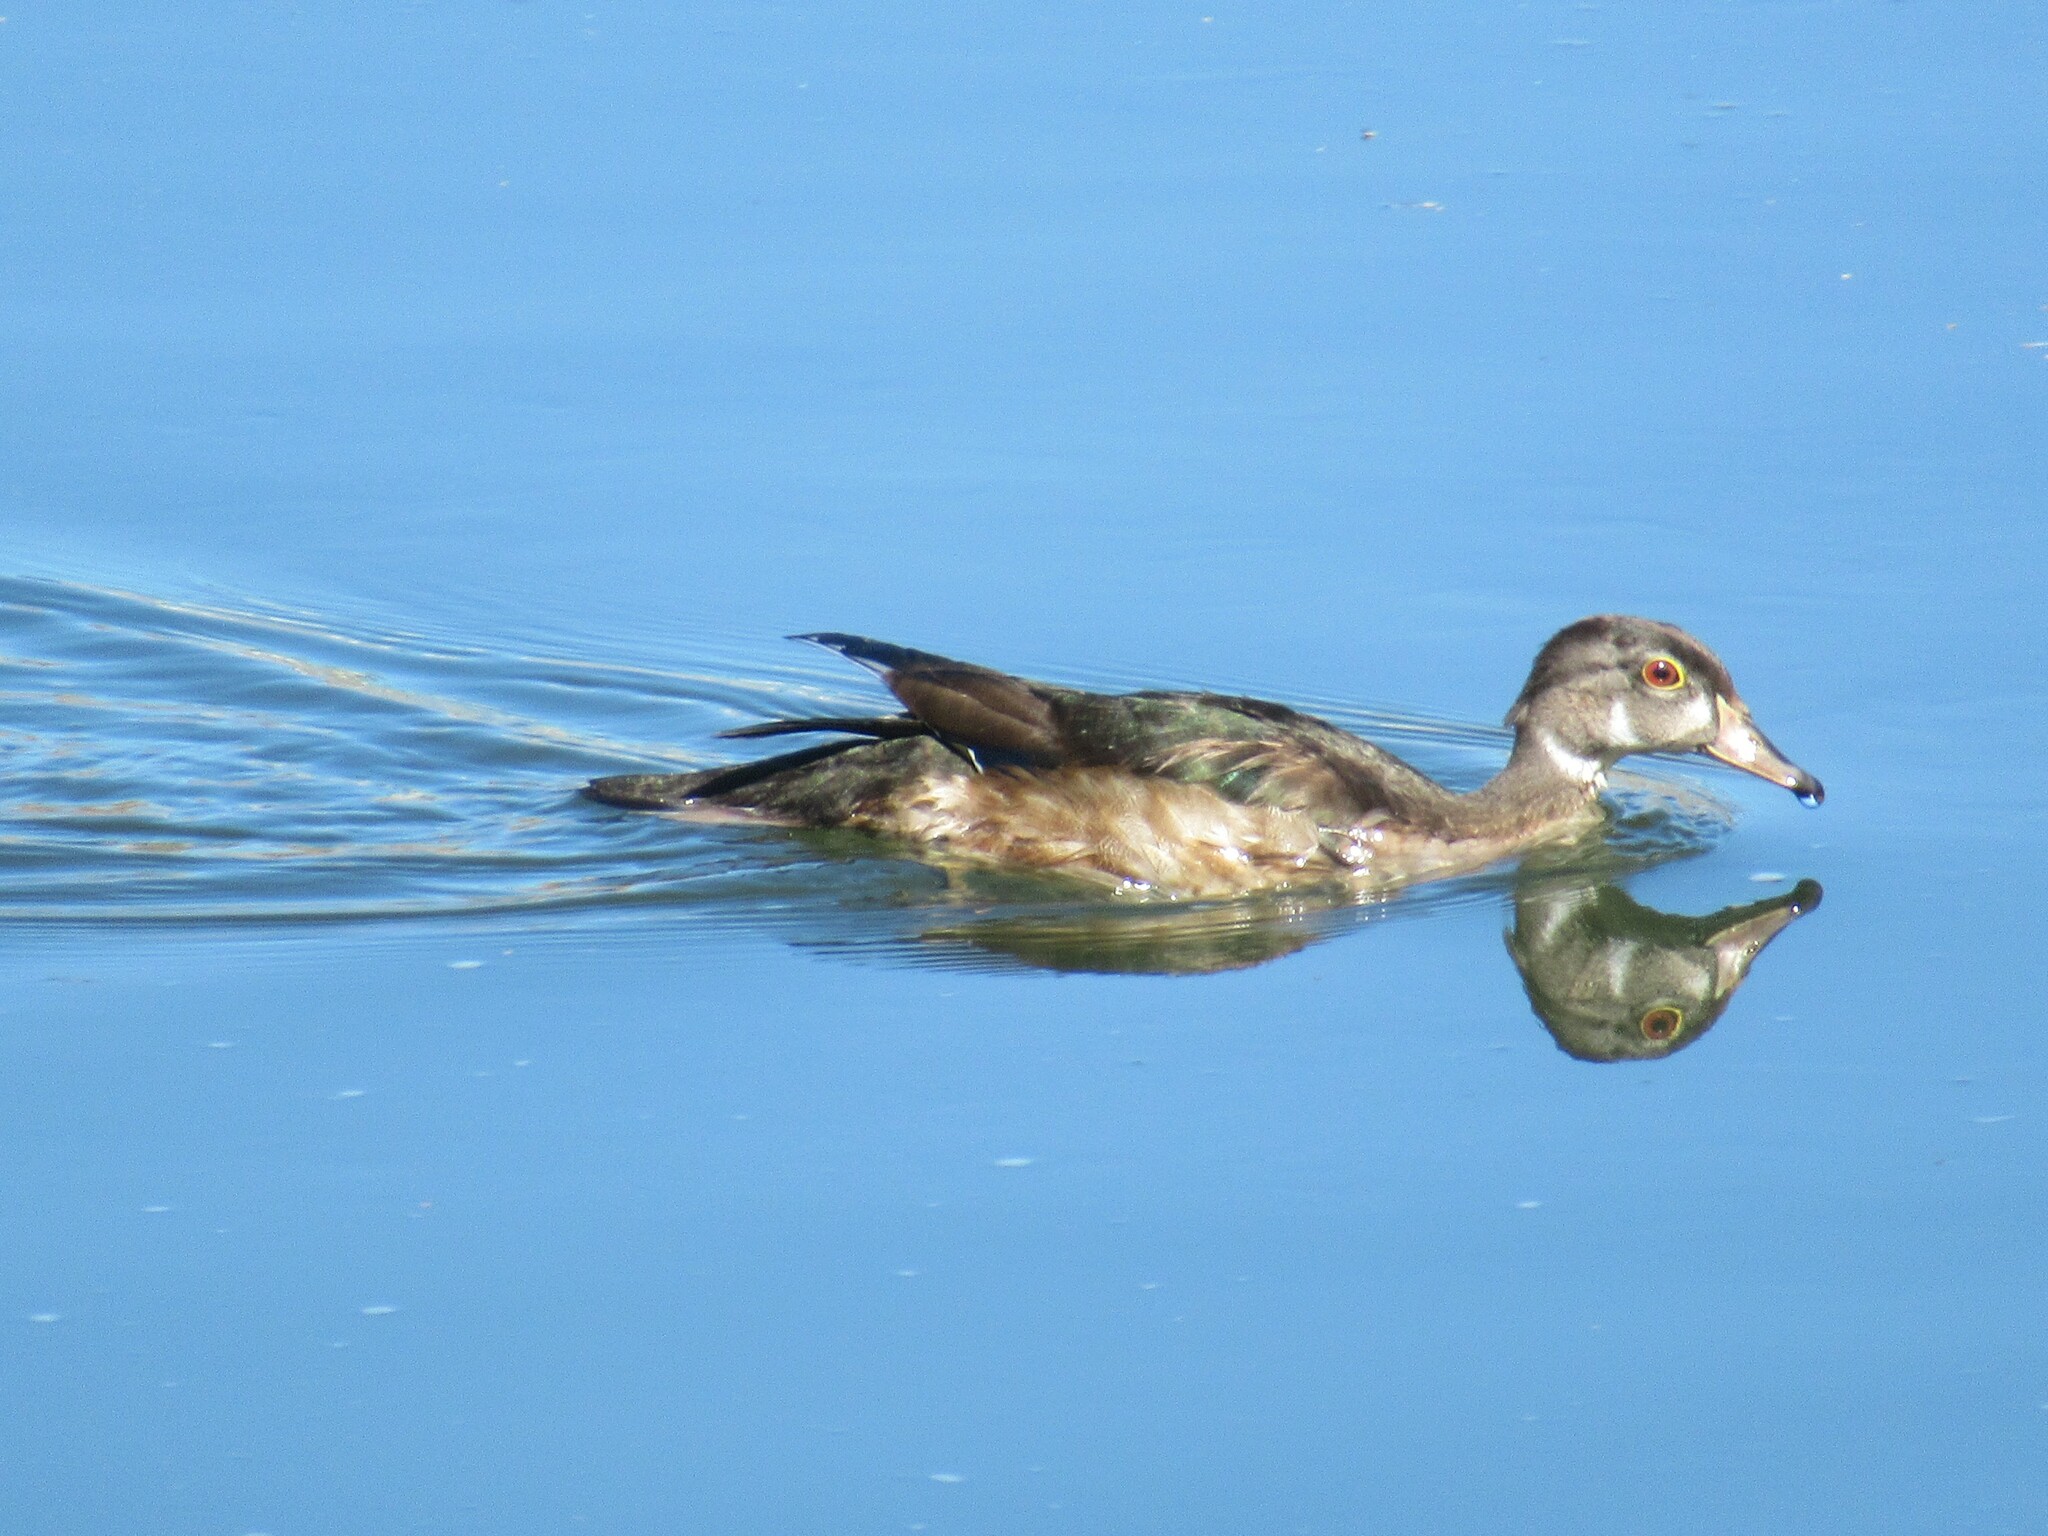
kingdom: Animalia
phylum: Chordata
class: Aves
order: Anseriformes
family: Anatidae
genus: Aix
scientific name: Aix sponsa
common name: Wood duck
